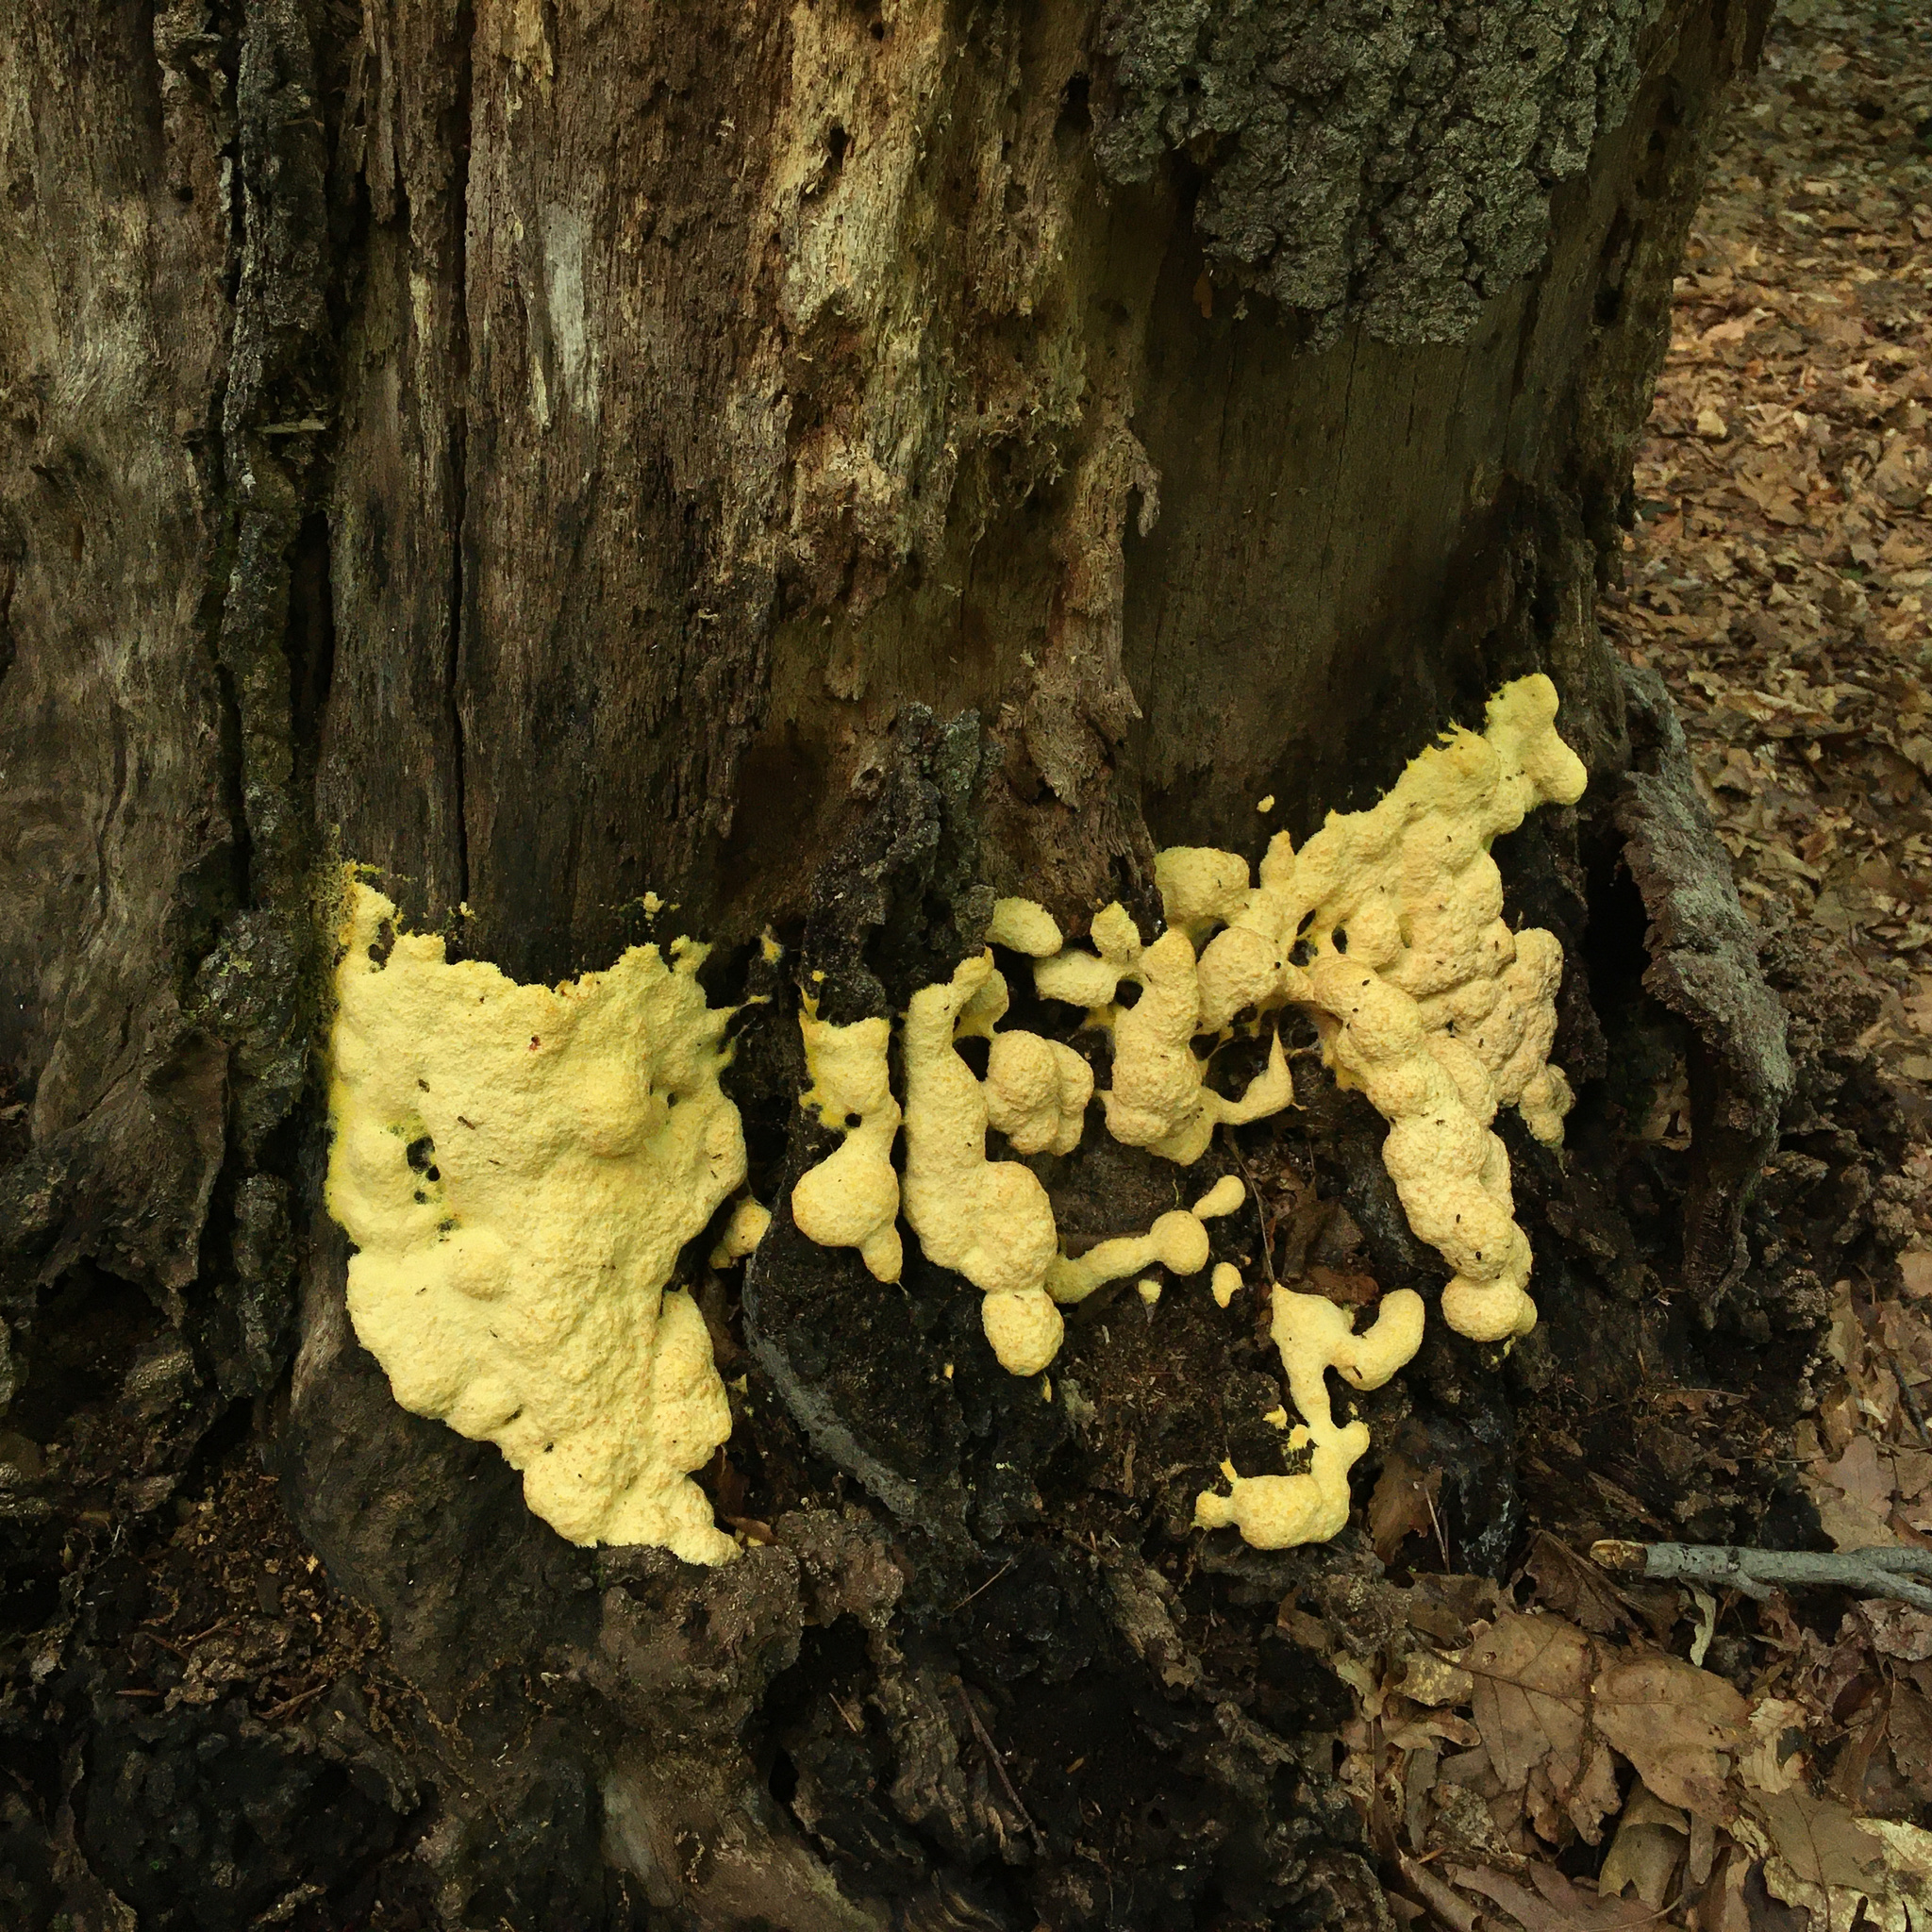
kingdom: Protozoa
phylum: Mycetozoa
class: Myxomycetes
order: Physarales
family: Physaraceae
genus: Fuligo
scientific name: Fuligo septica
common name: Dog vomit slime mold
